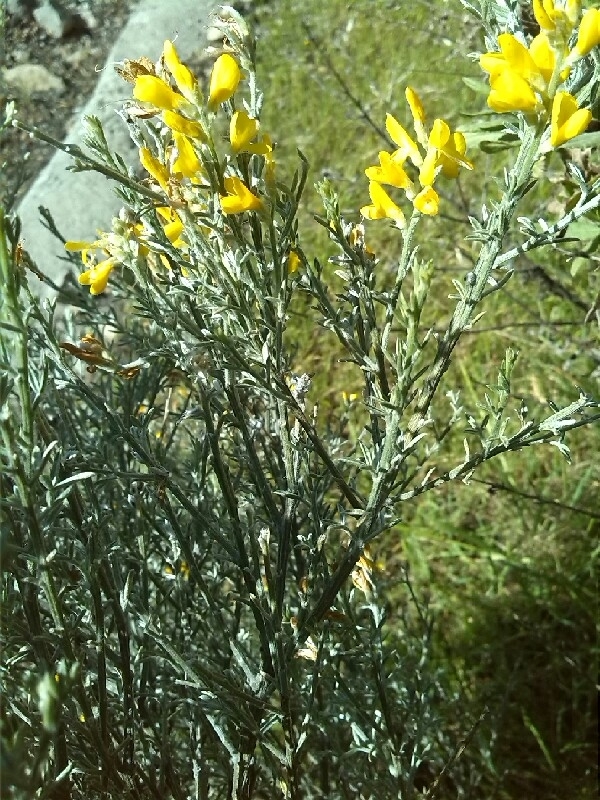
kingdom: Plantae
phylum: Tracheophyta
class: Magnoliopsida
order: Fabales
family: Fabaceae
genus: Genista
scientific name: Genista microphylla
